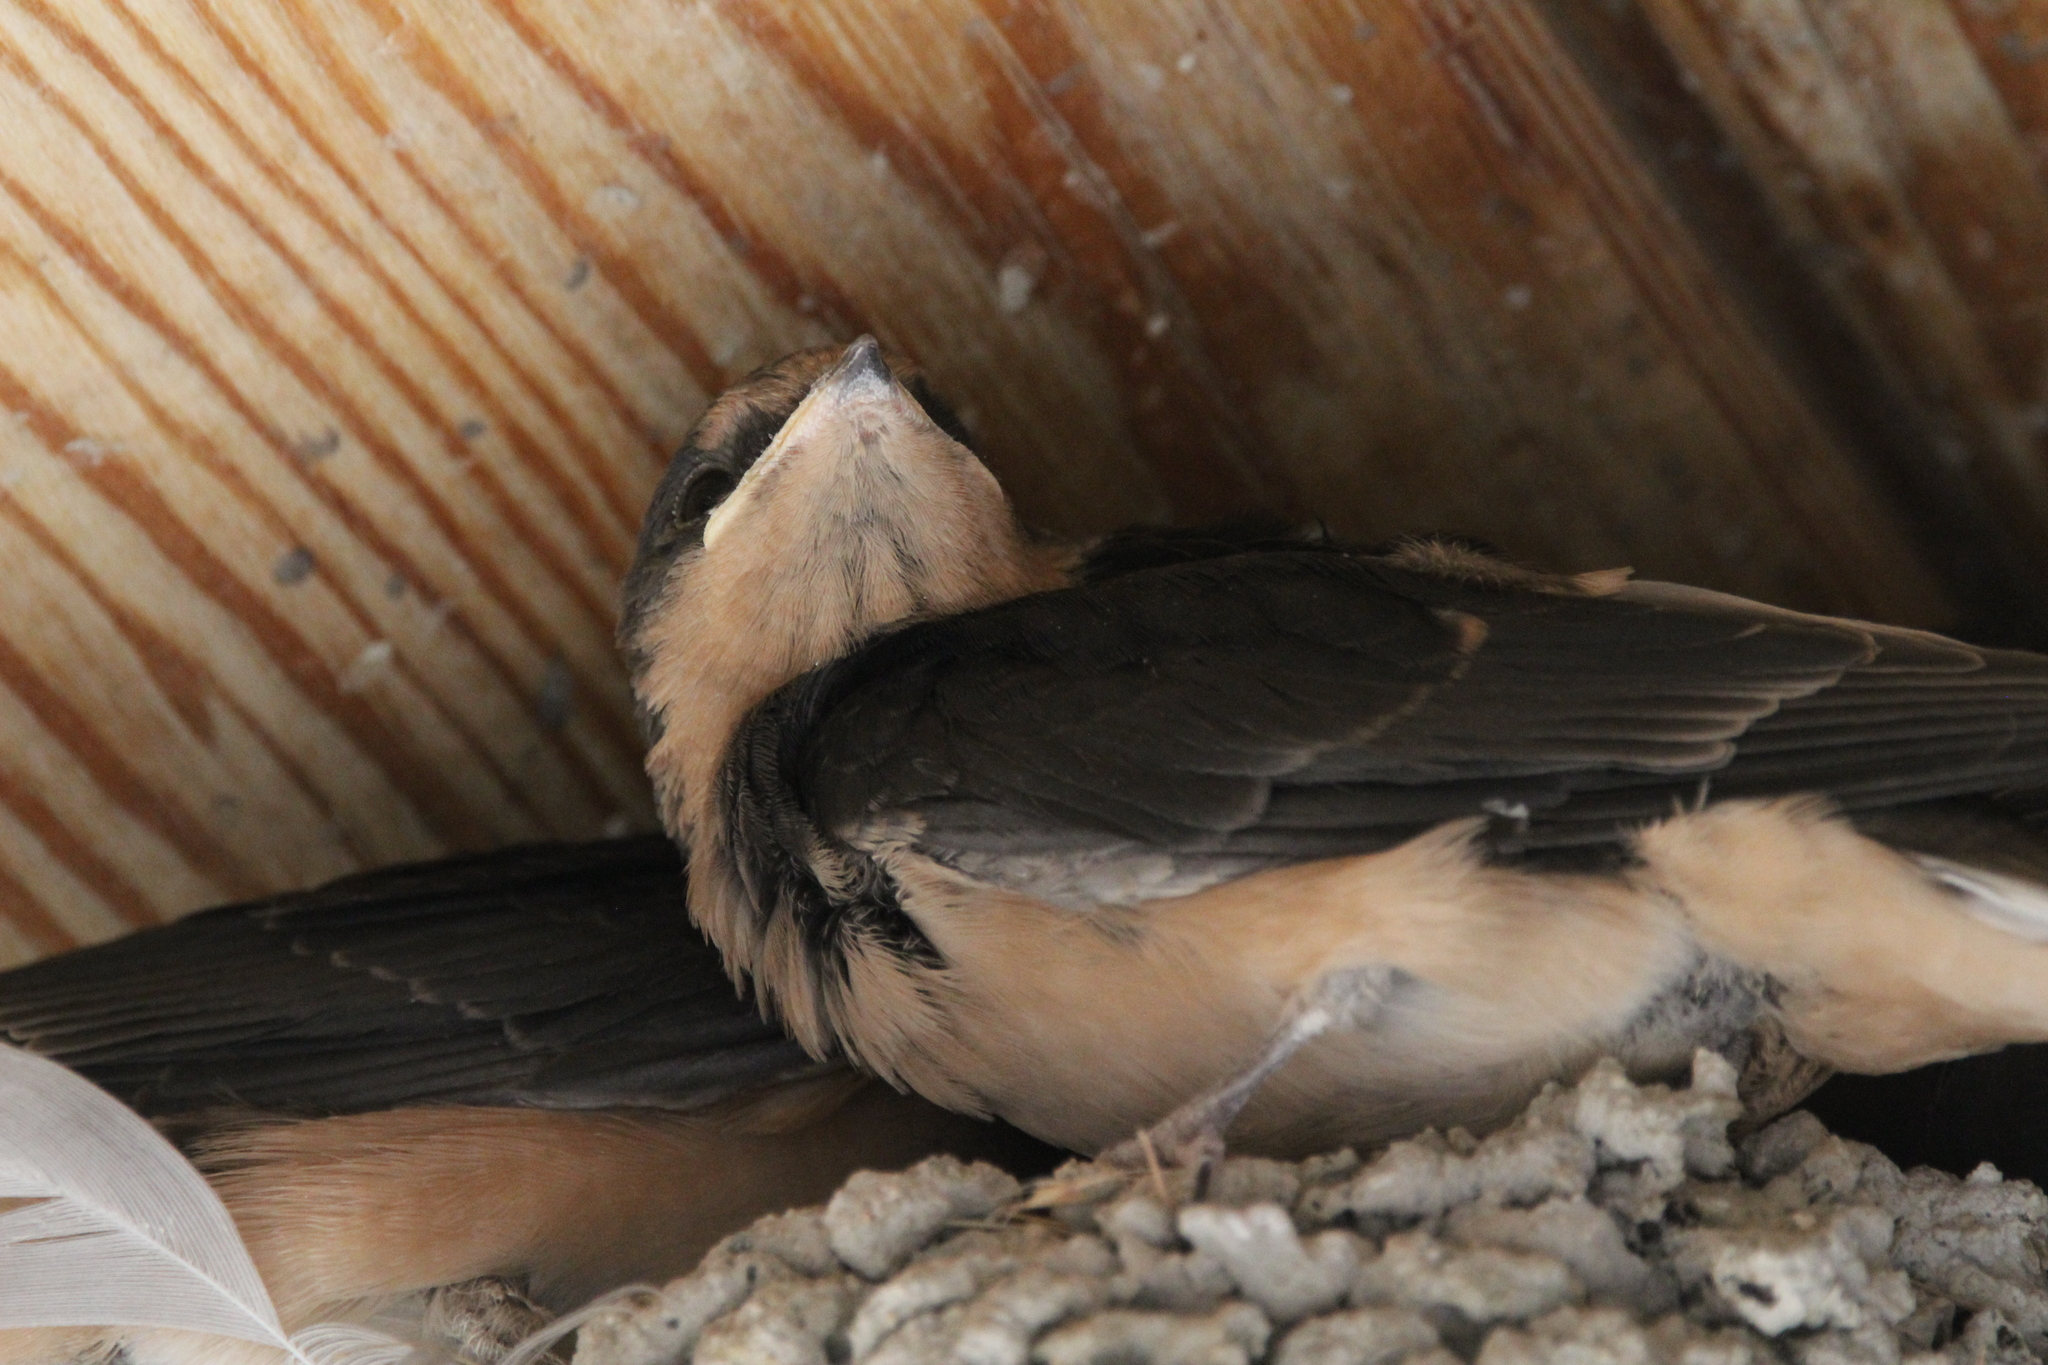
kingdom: Animalia
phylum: Chordata
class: Aves
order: Passeriformes
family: Hirundinidae
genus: Hirundo
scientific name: Hirundo rustica
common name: Barn swallow
